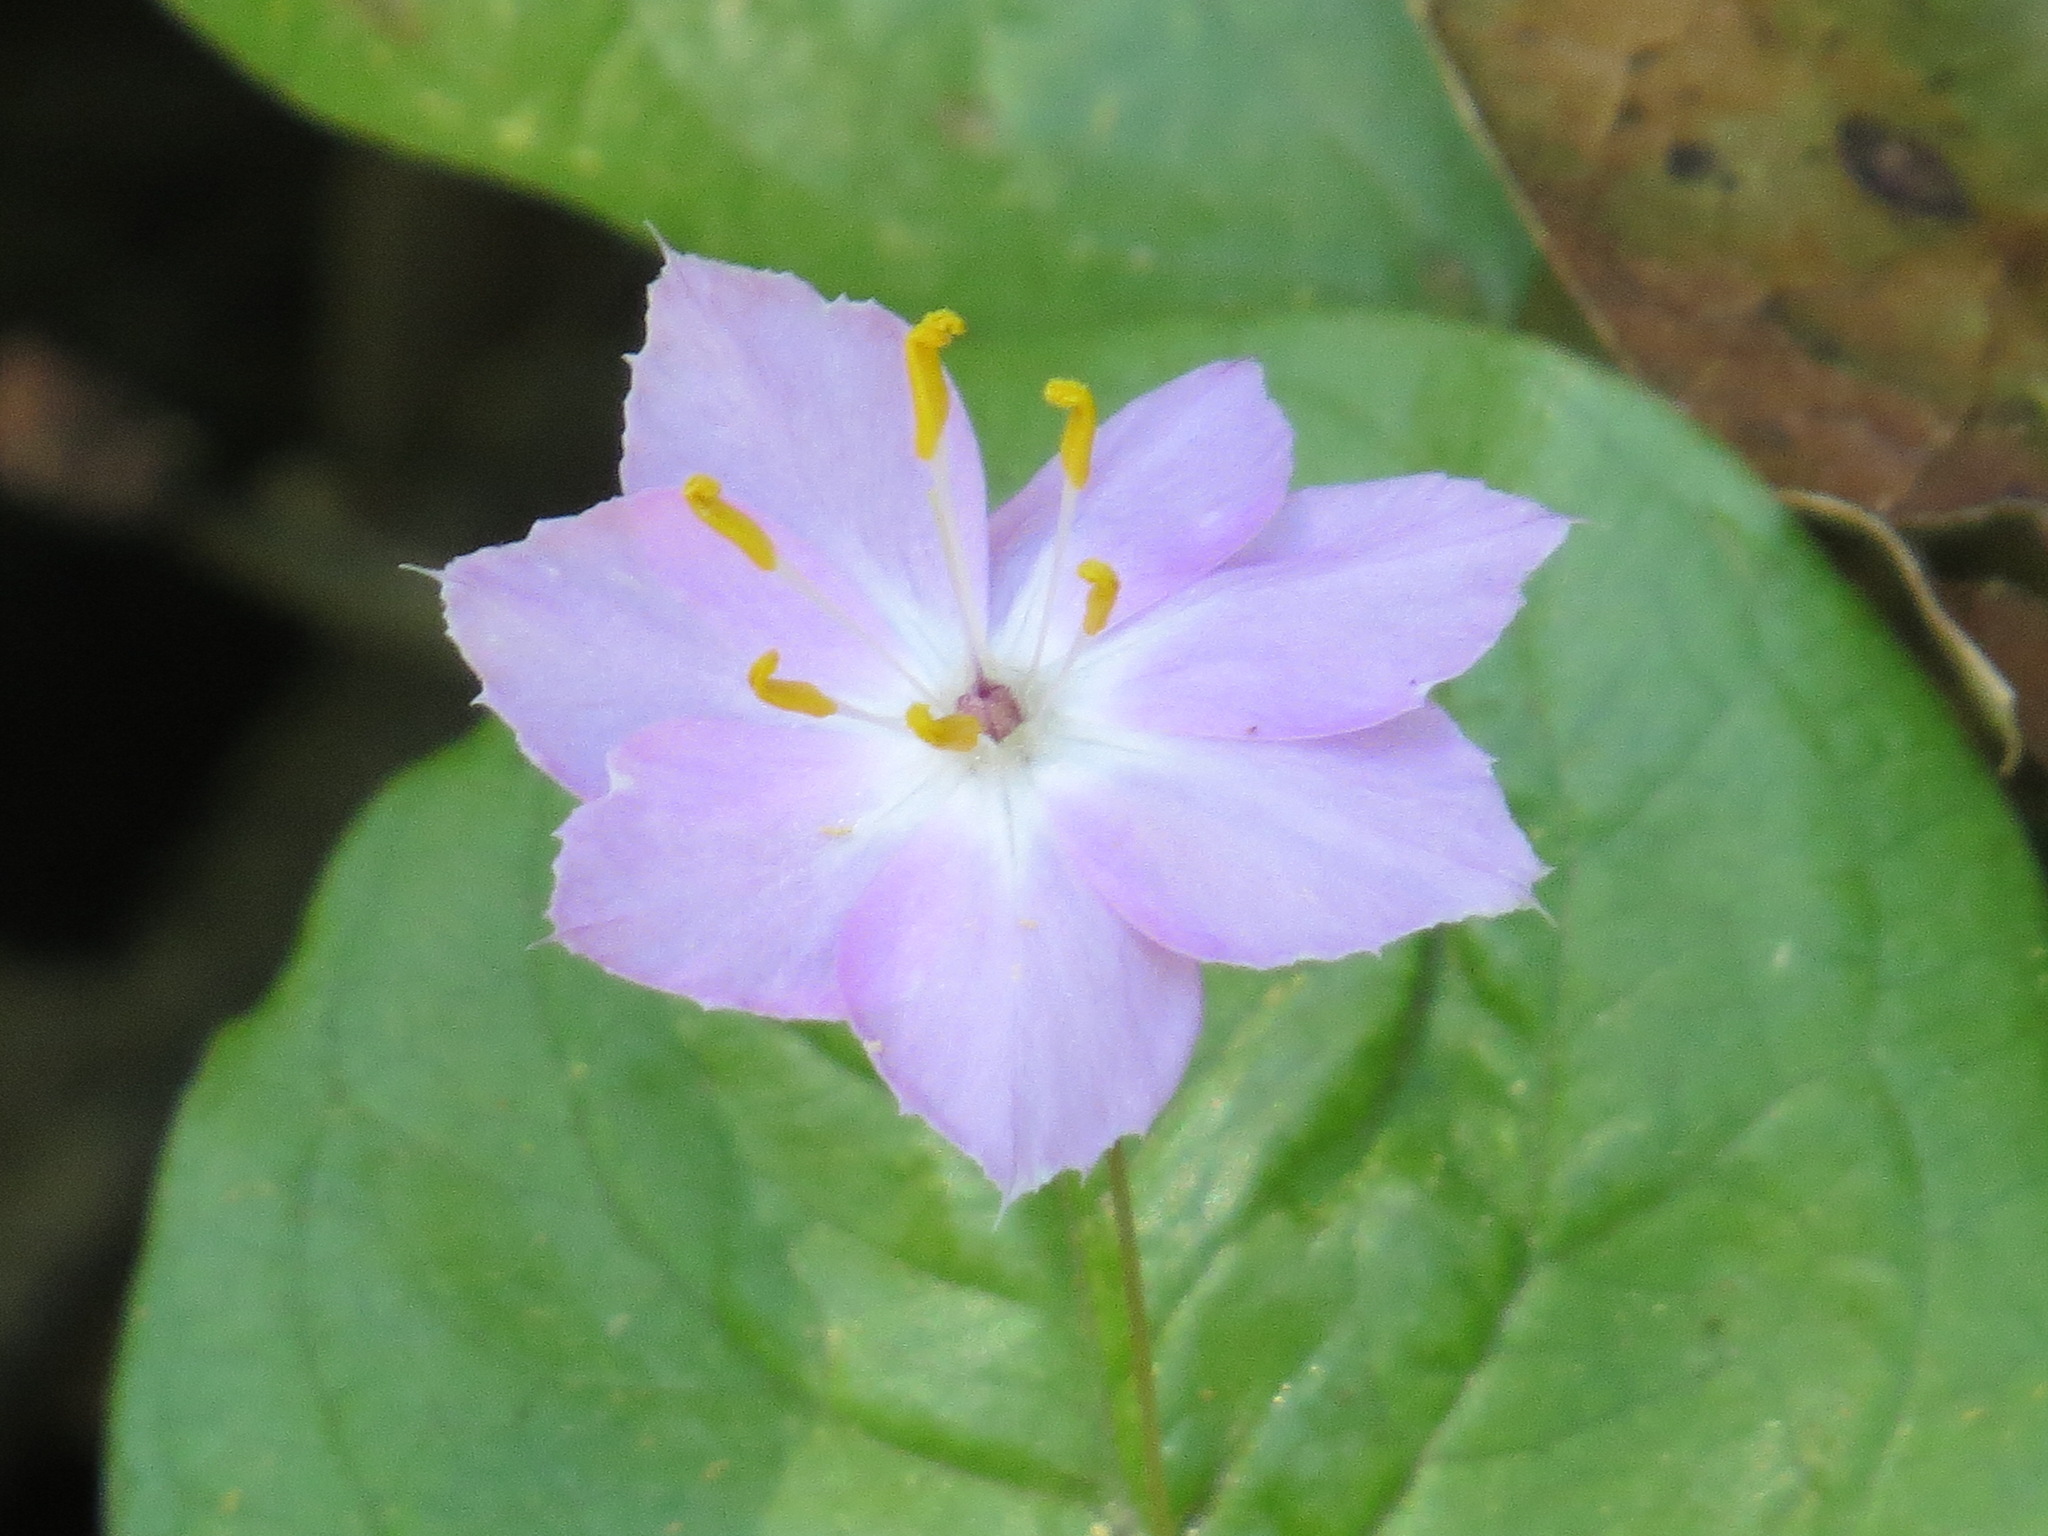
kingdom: Plantae
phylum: Tracheophyta
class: Magnoliopsida
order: Ericales
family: Primulaceae
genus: Lysimachia
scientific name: Lysimachia latifolia
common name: Pacific starflower
